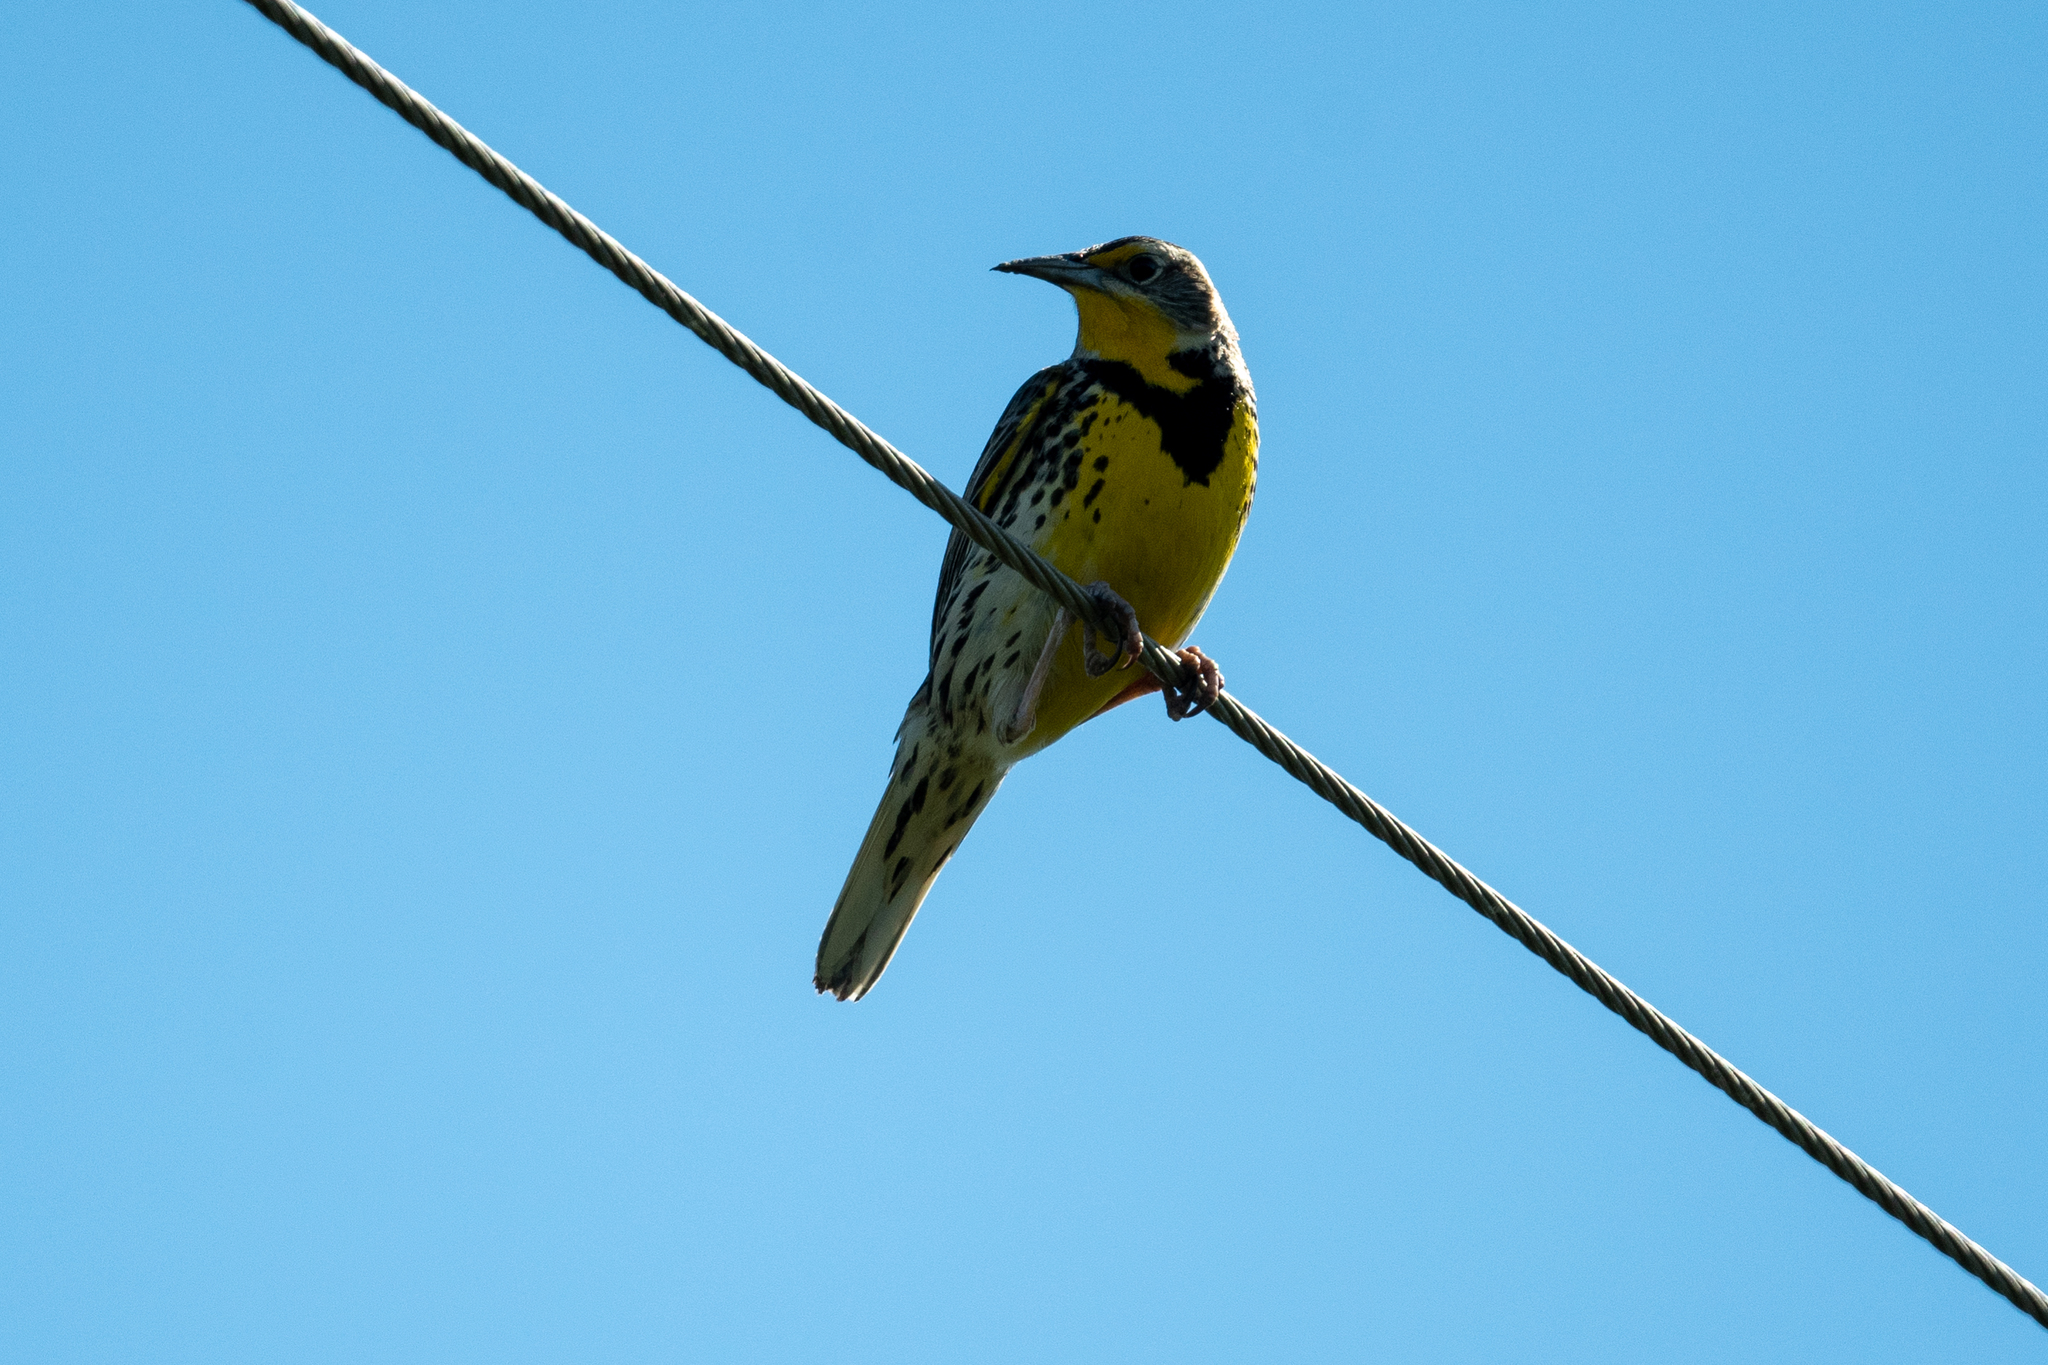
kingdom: Animalia
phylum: Chordata
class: Aves
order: Passeriformes
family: Icteridae
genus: Sturnella
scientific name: Sturnella neglecta
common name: Western meadowlark
